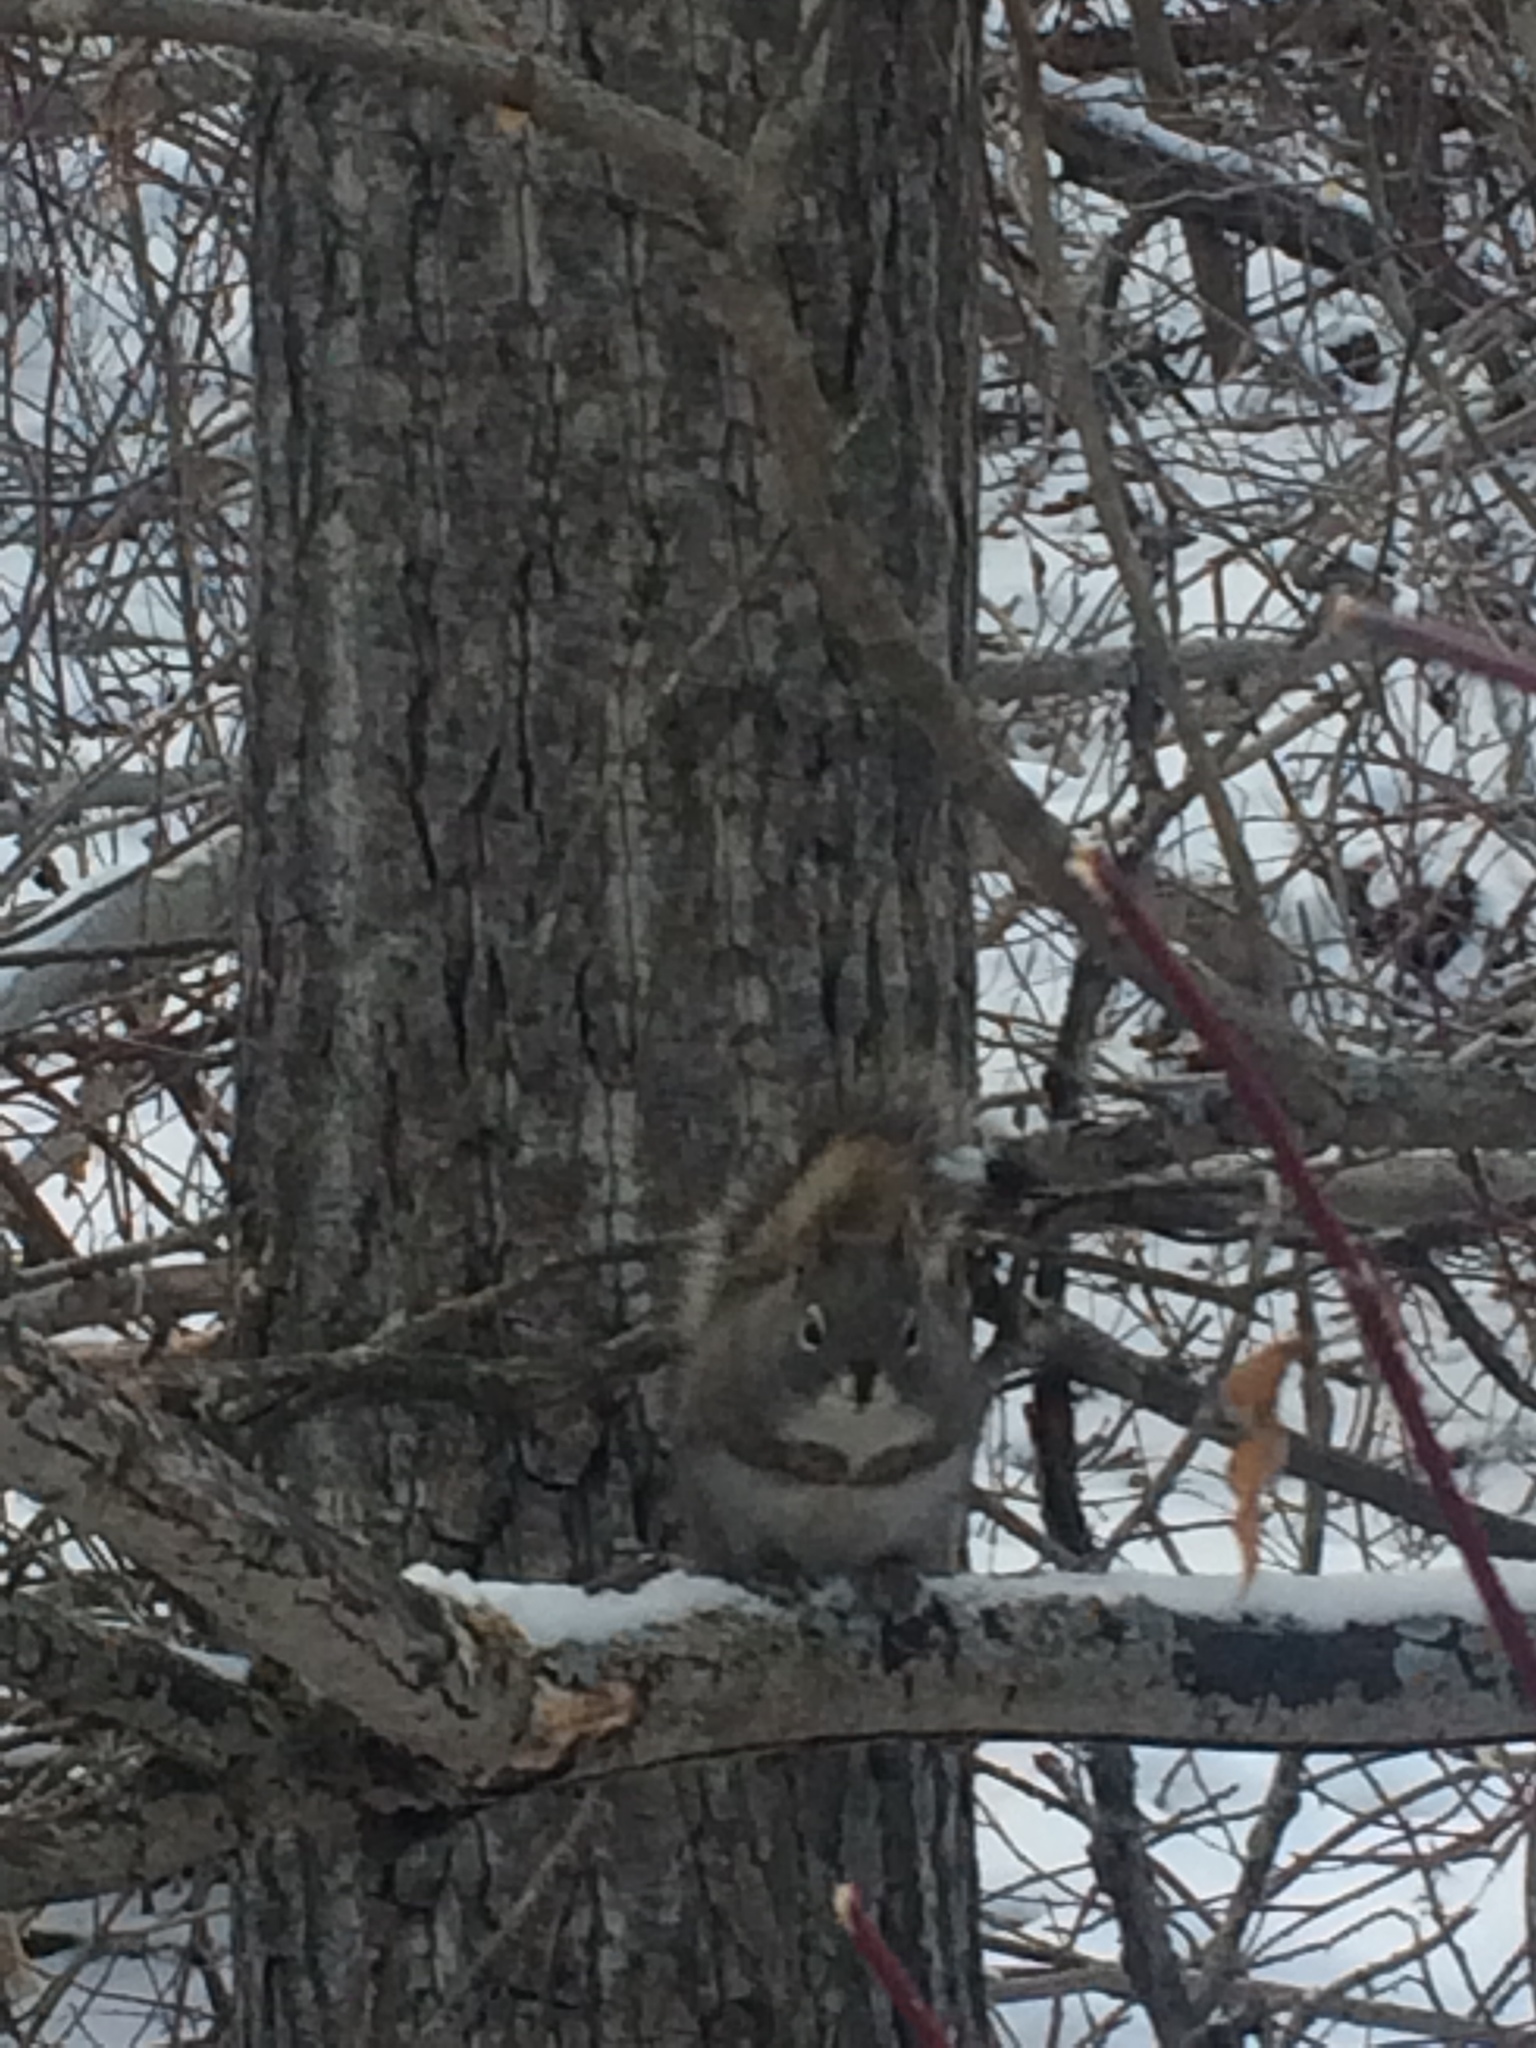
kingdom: Animalia
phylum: Chordata
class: Mammalia
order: Rodentia
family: Sciuridae
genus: Tamiasciurus
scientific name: Tamiasciurus hudsonicus
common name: Red squirrel
